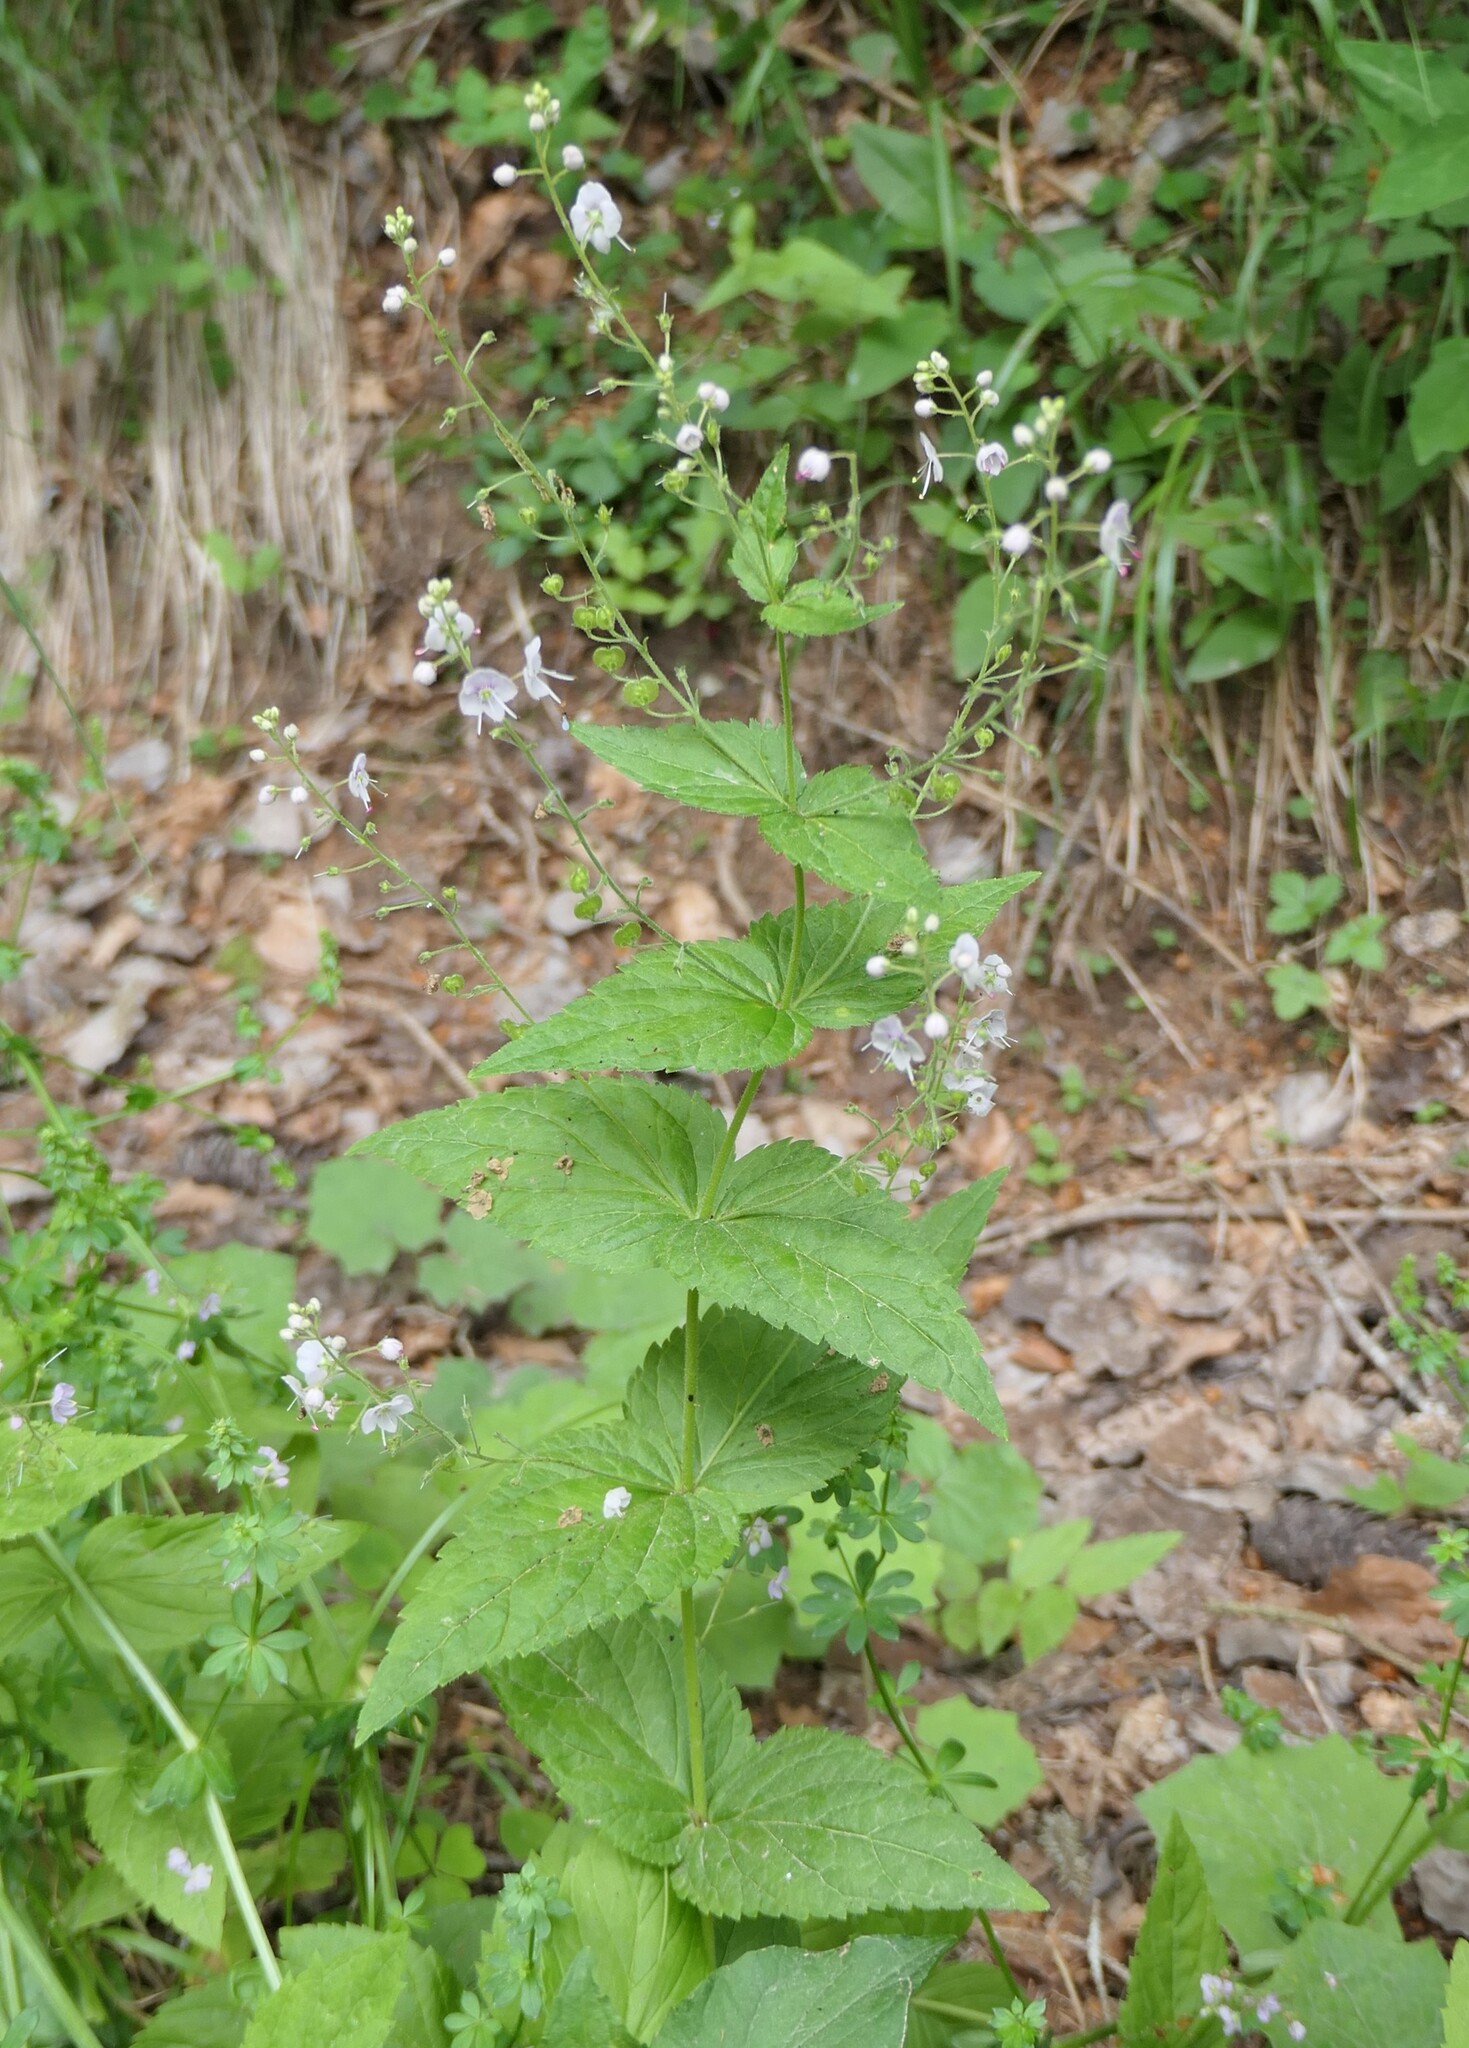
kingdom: Plantae
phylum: Tracheophyta
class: Magnoliopsida
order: Lamiales
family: Plantaginaceae
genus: Veronica
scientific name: Veronica urticifolia
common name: Nettle-leaf speedwell
